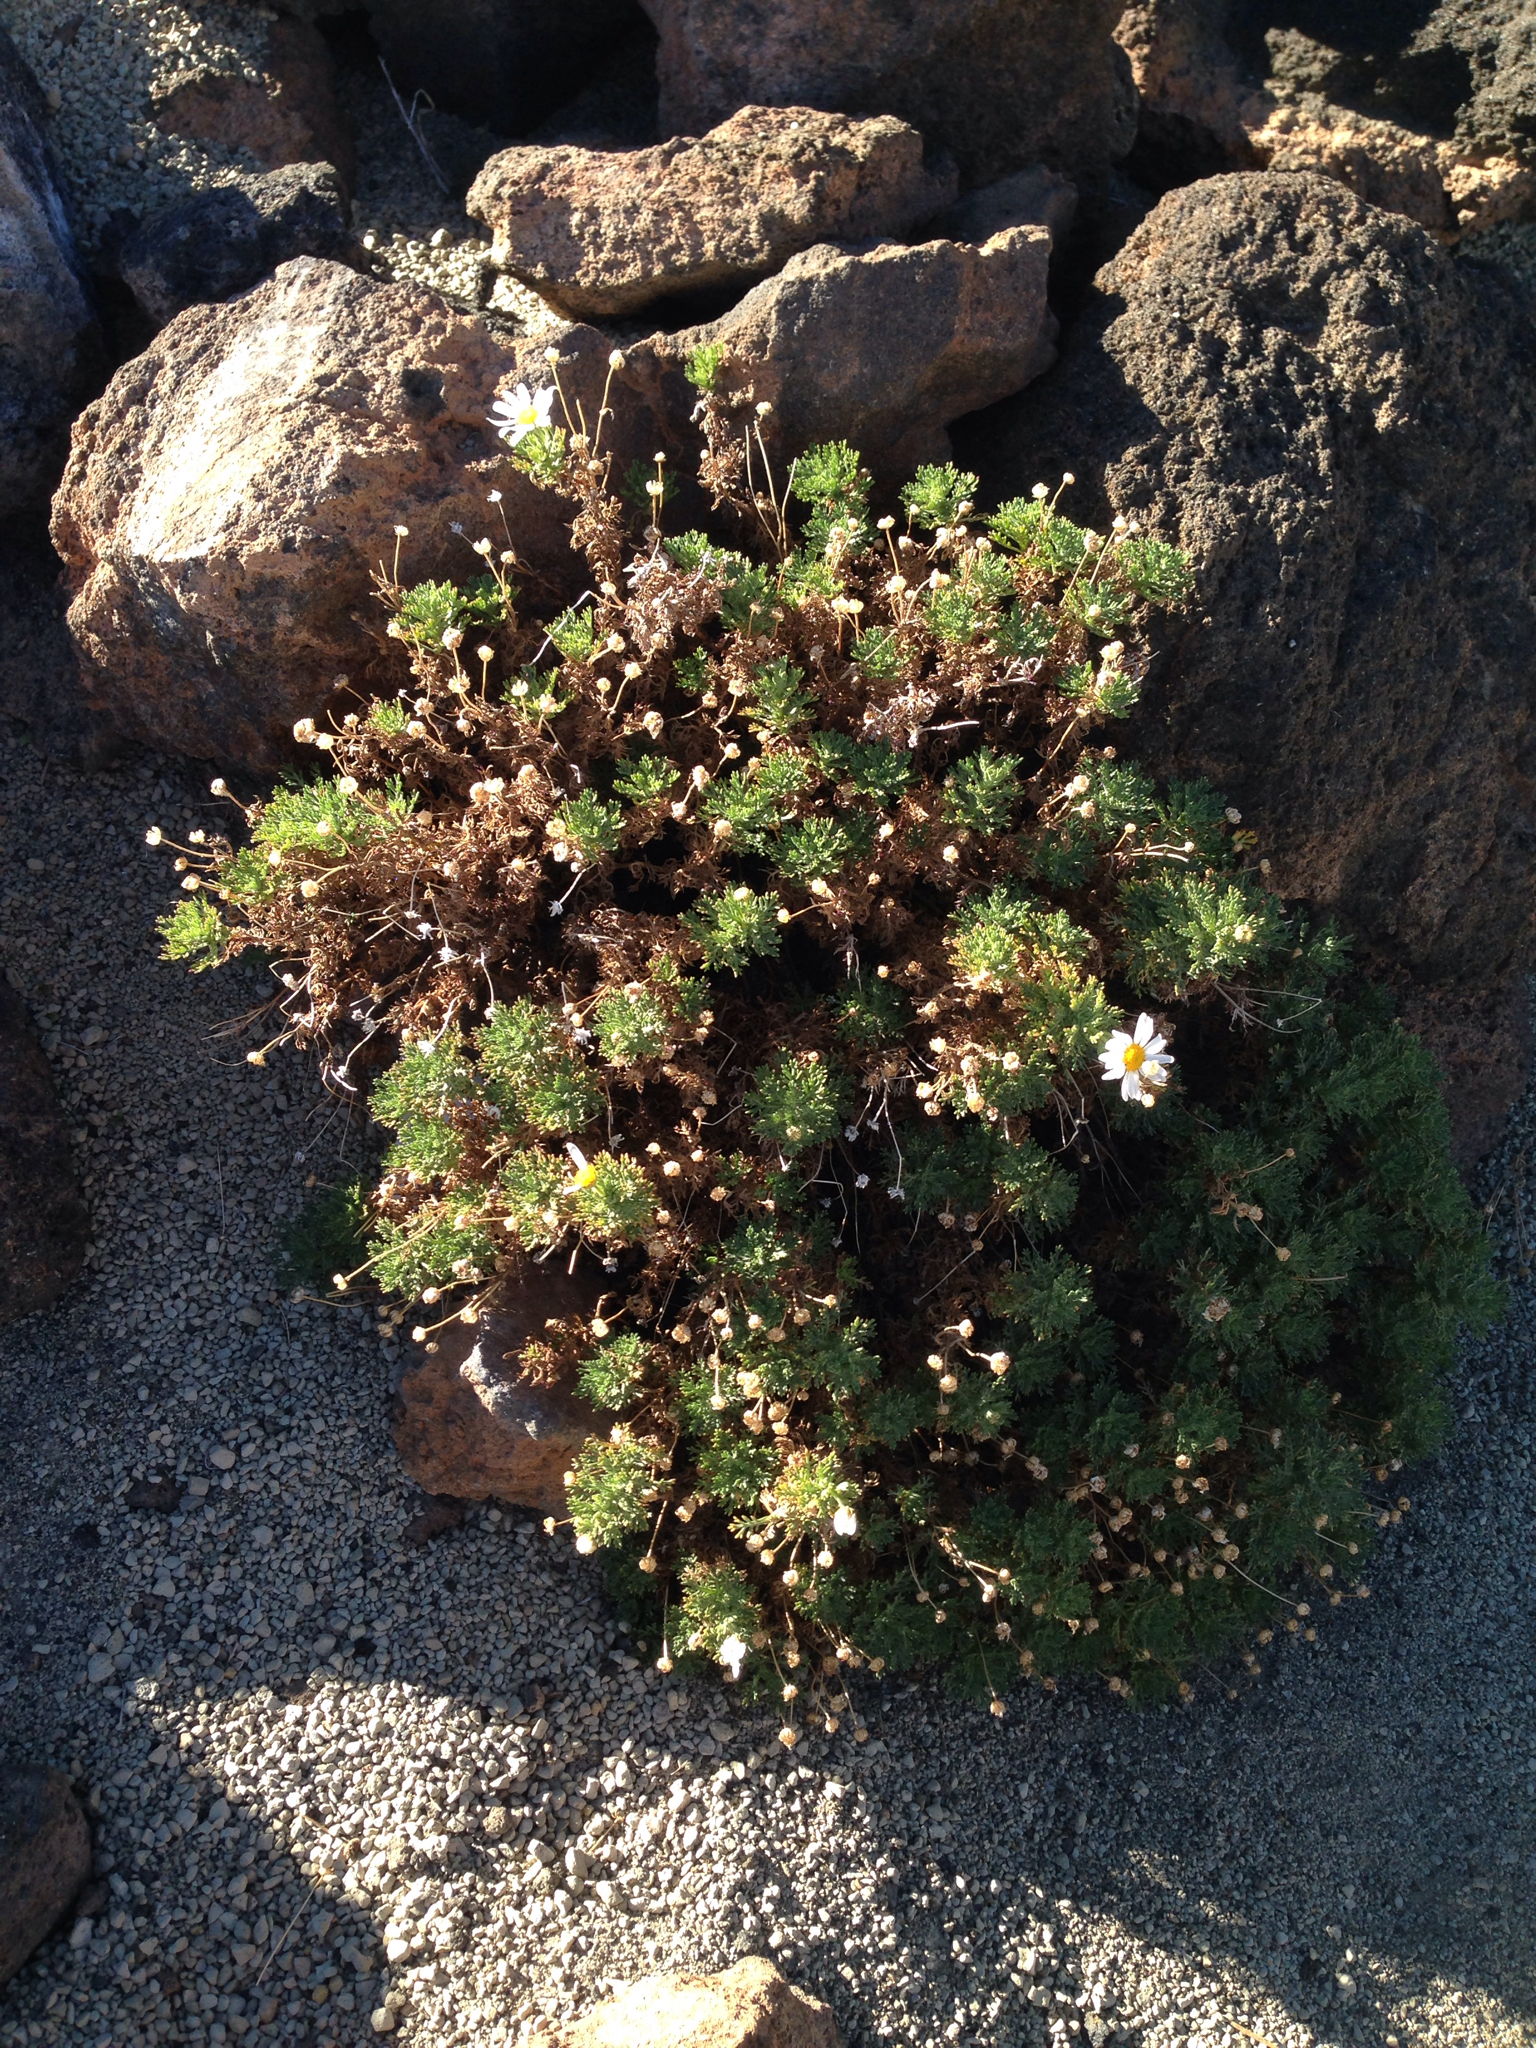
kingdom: Plantae
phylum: Tracheophyta
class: Magnoliopsida
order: Asterales
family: Asteraceae
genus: Argyranthemum
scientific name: Argyranthemum tenerifae
